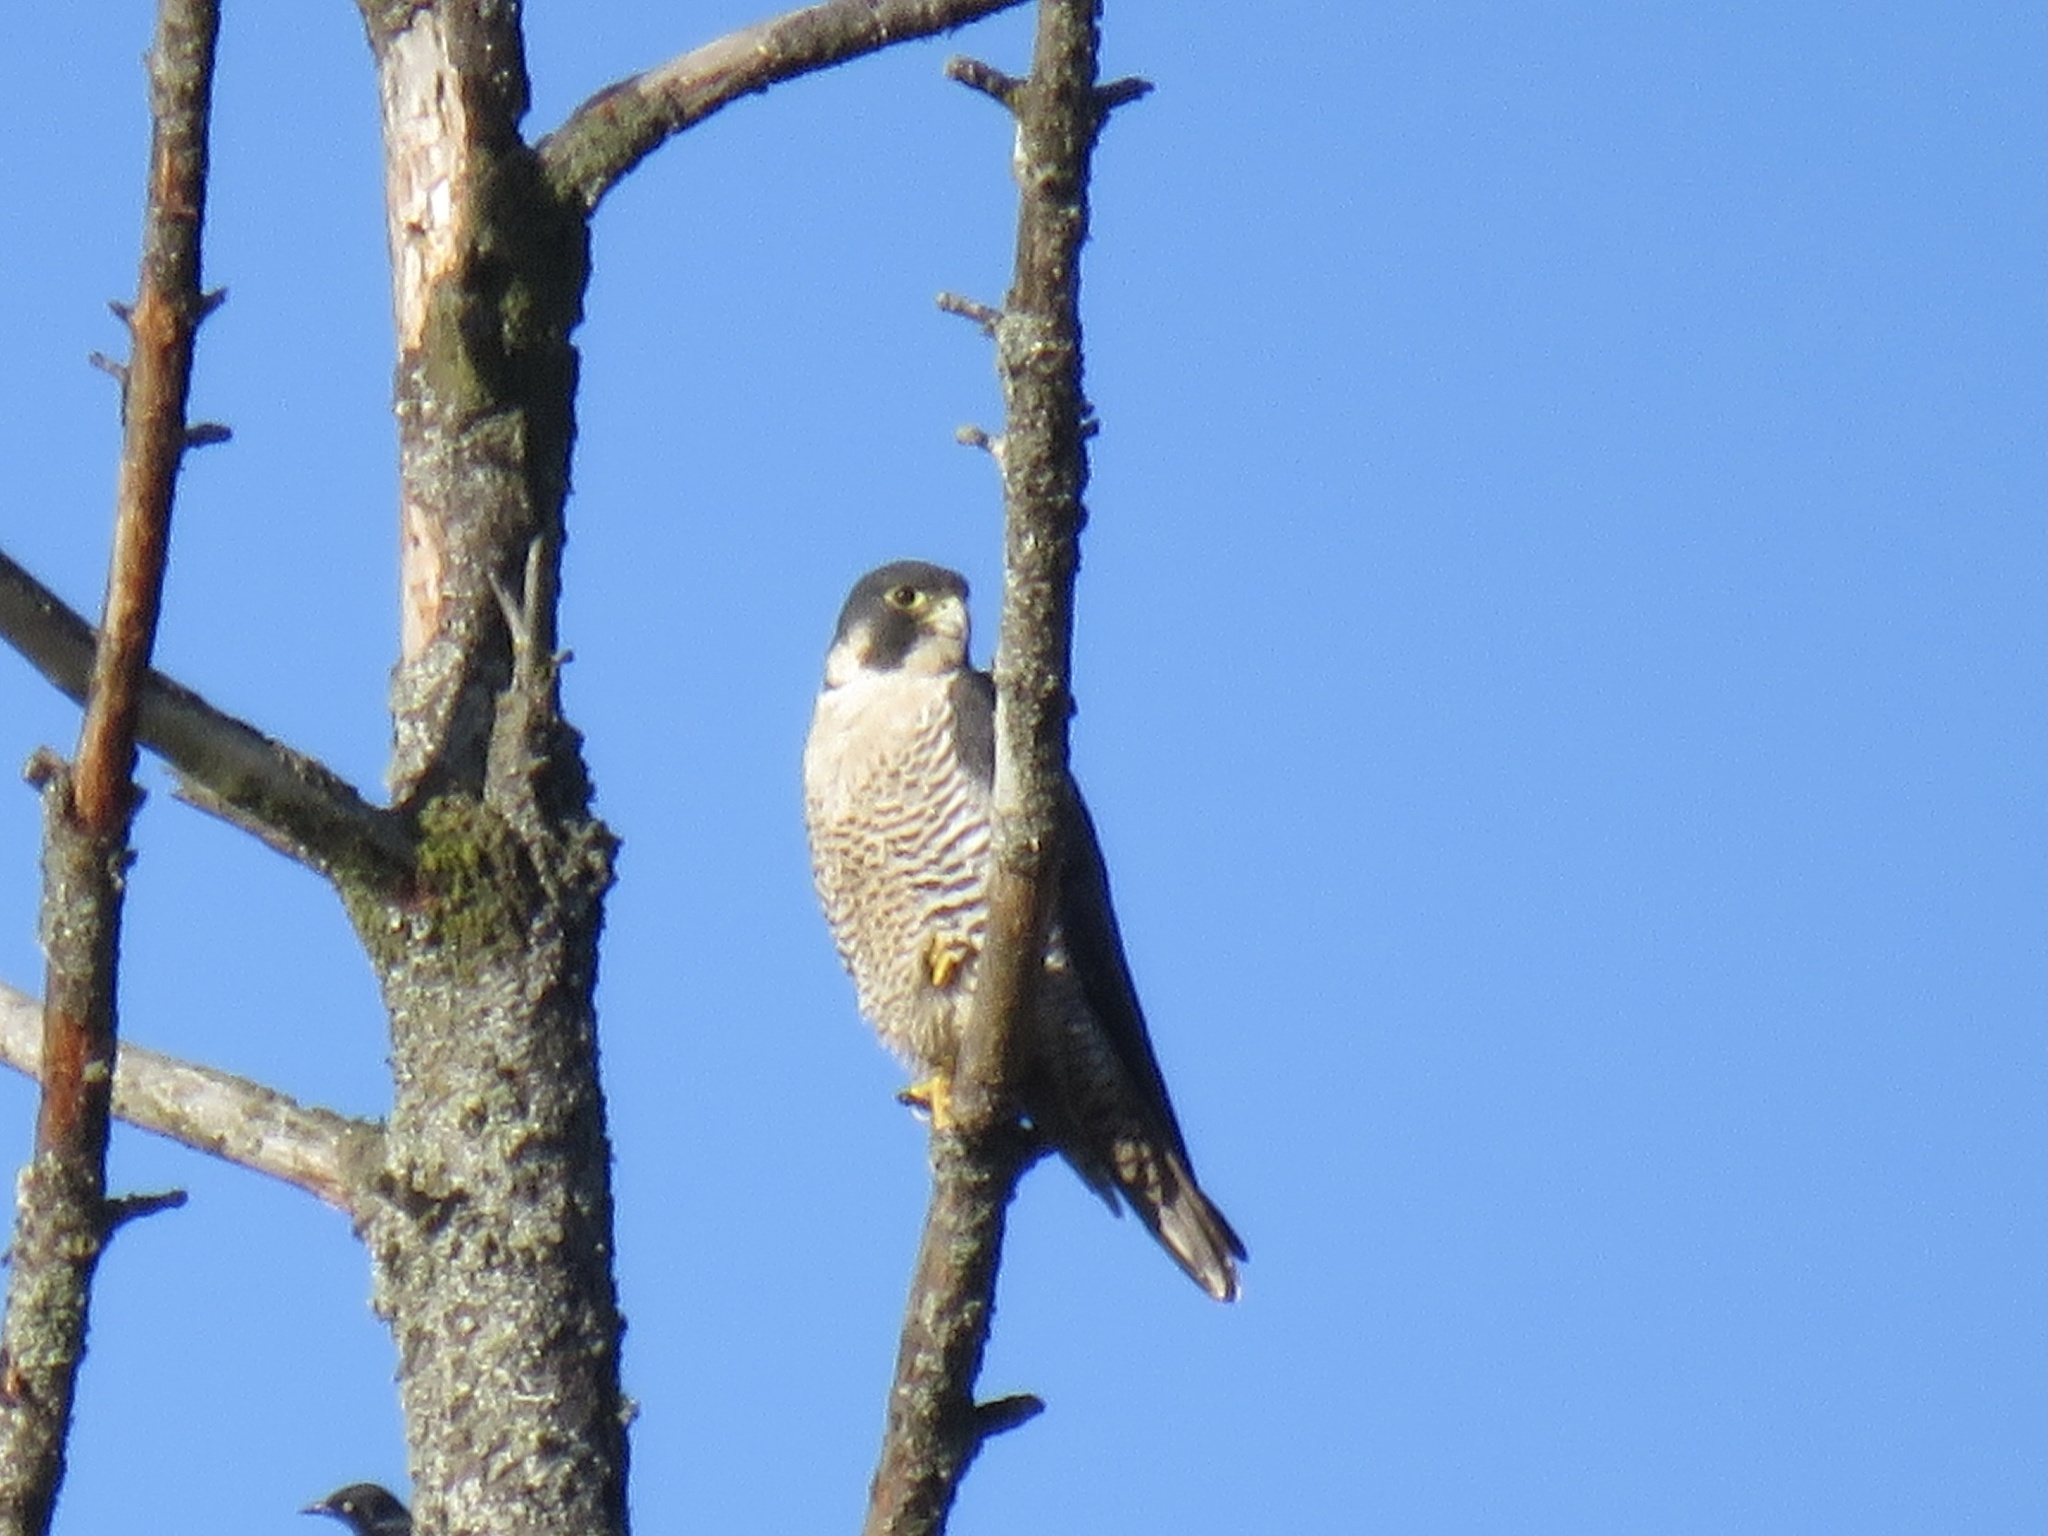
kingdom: Animalia
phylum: Chordata
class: Aves
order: Falconiformes
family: Falconidae
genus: Falco
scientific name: Falco peregrinus
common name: Peregrine falcon
